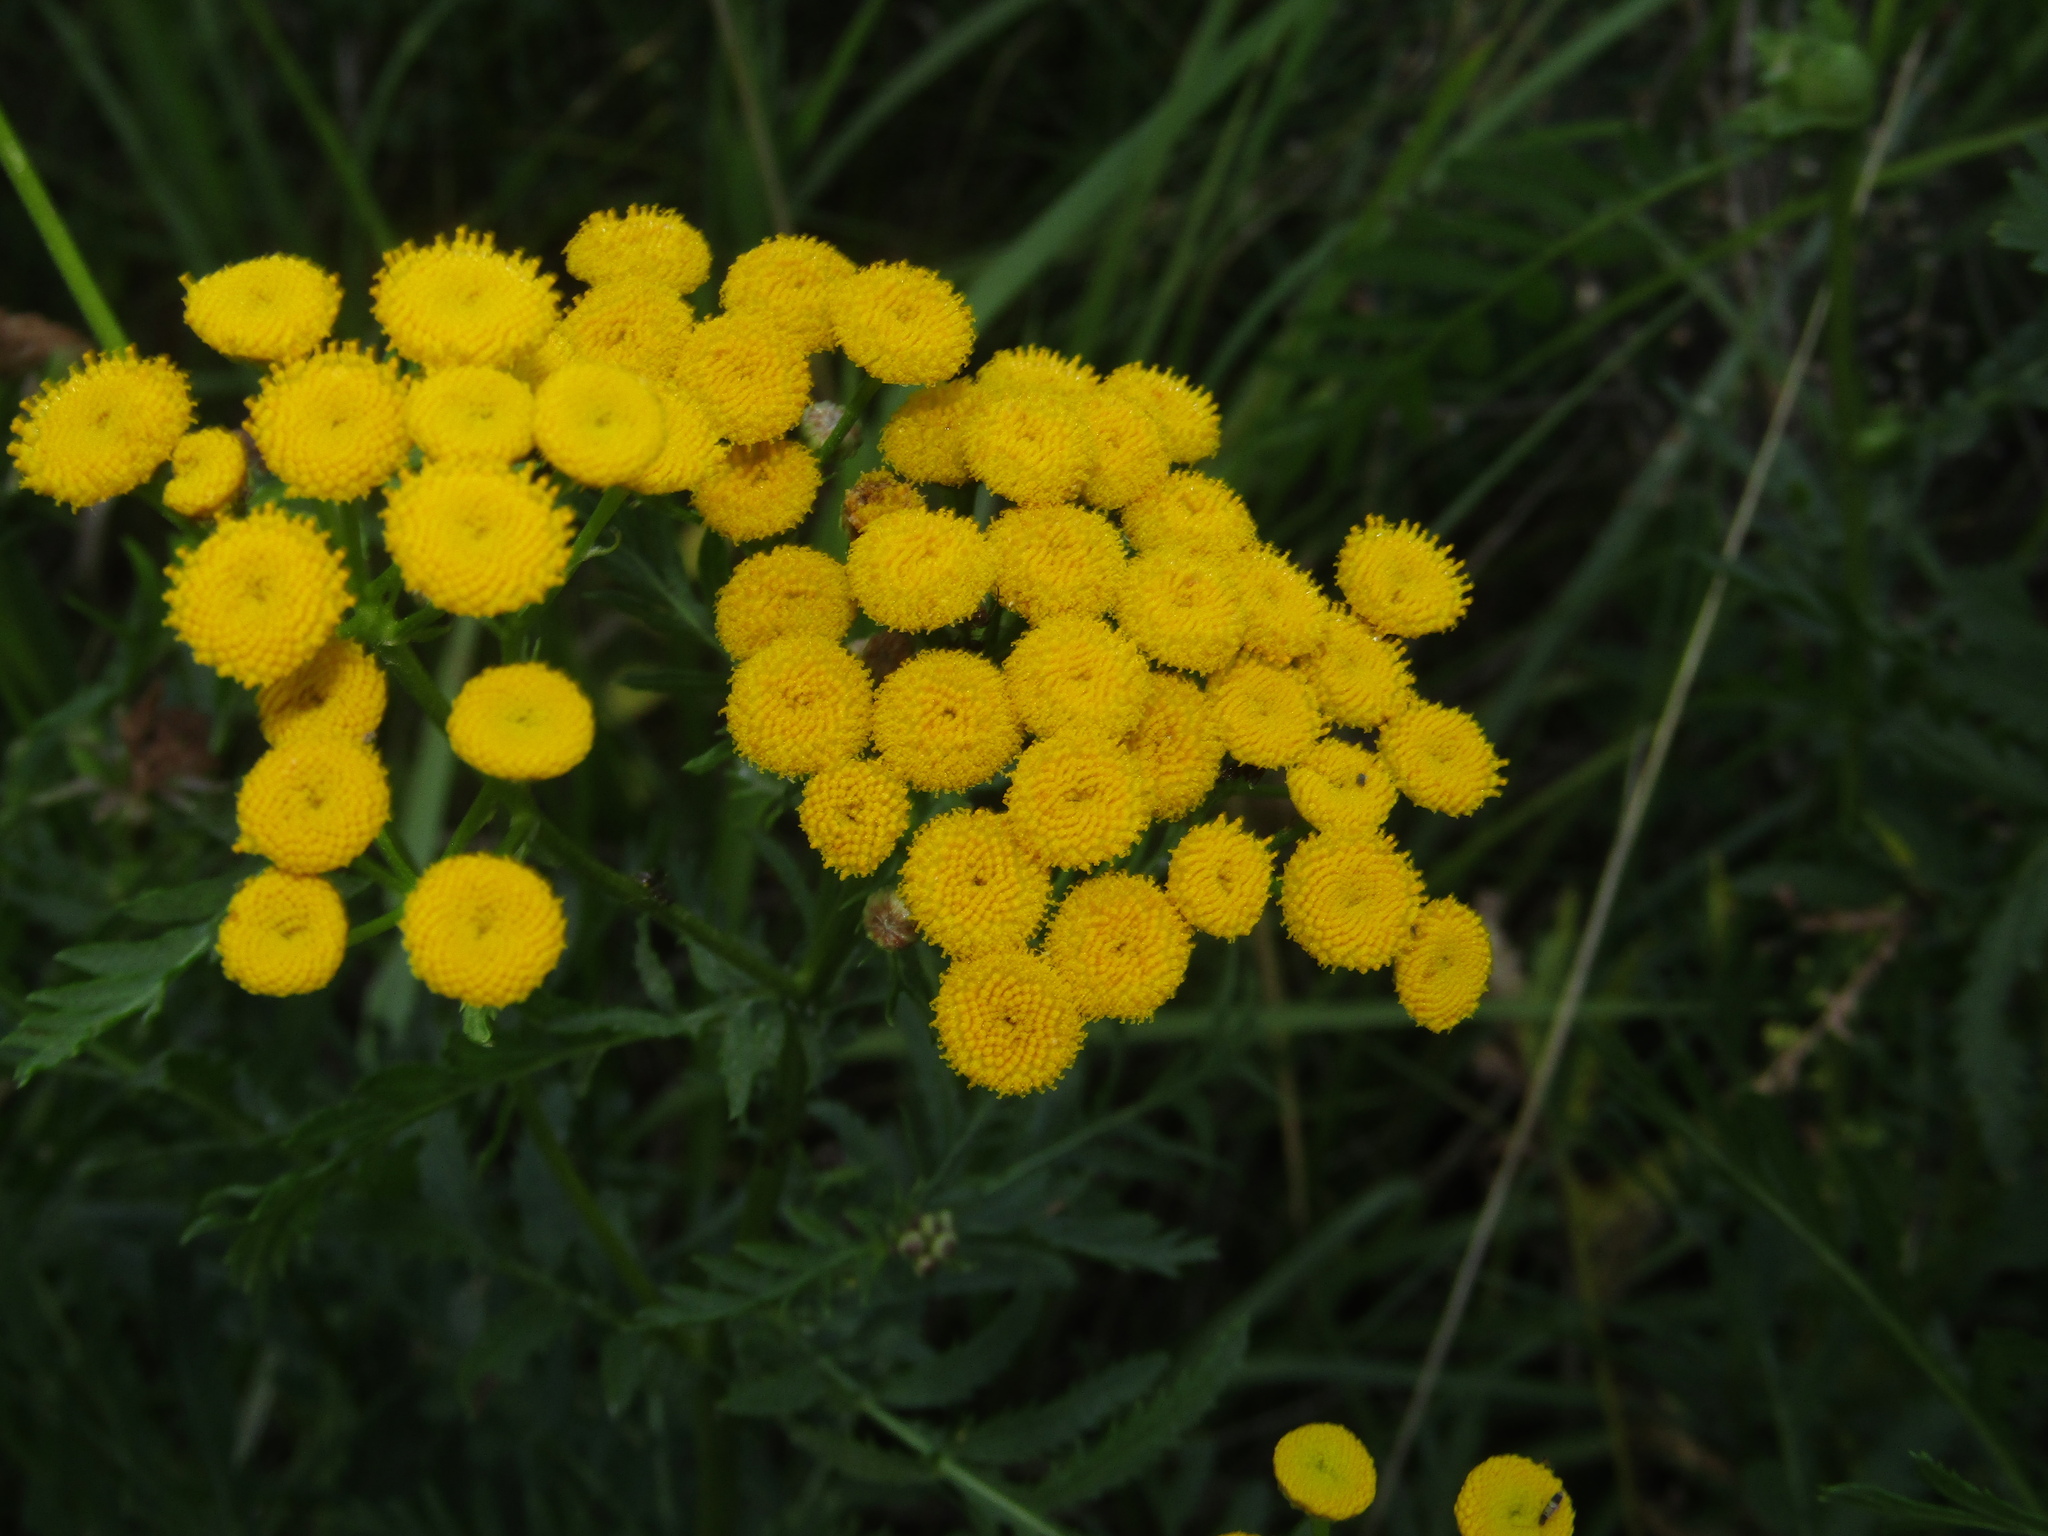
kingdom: Plantae
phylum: Tracheophyta
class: Magnoliopsida
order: Asterales
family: Asteraceae
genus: Tanacetum
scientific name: Tanacetum vulgare
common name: Common tansy
